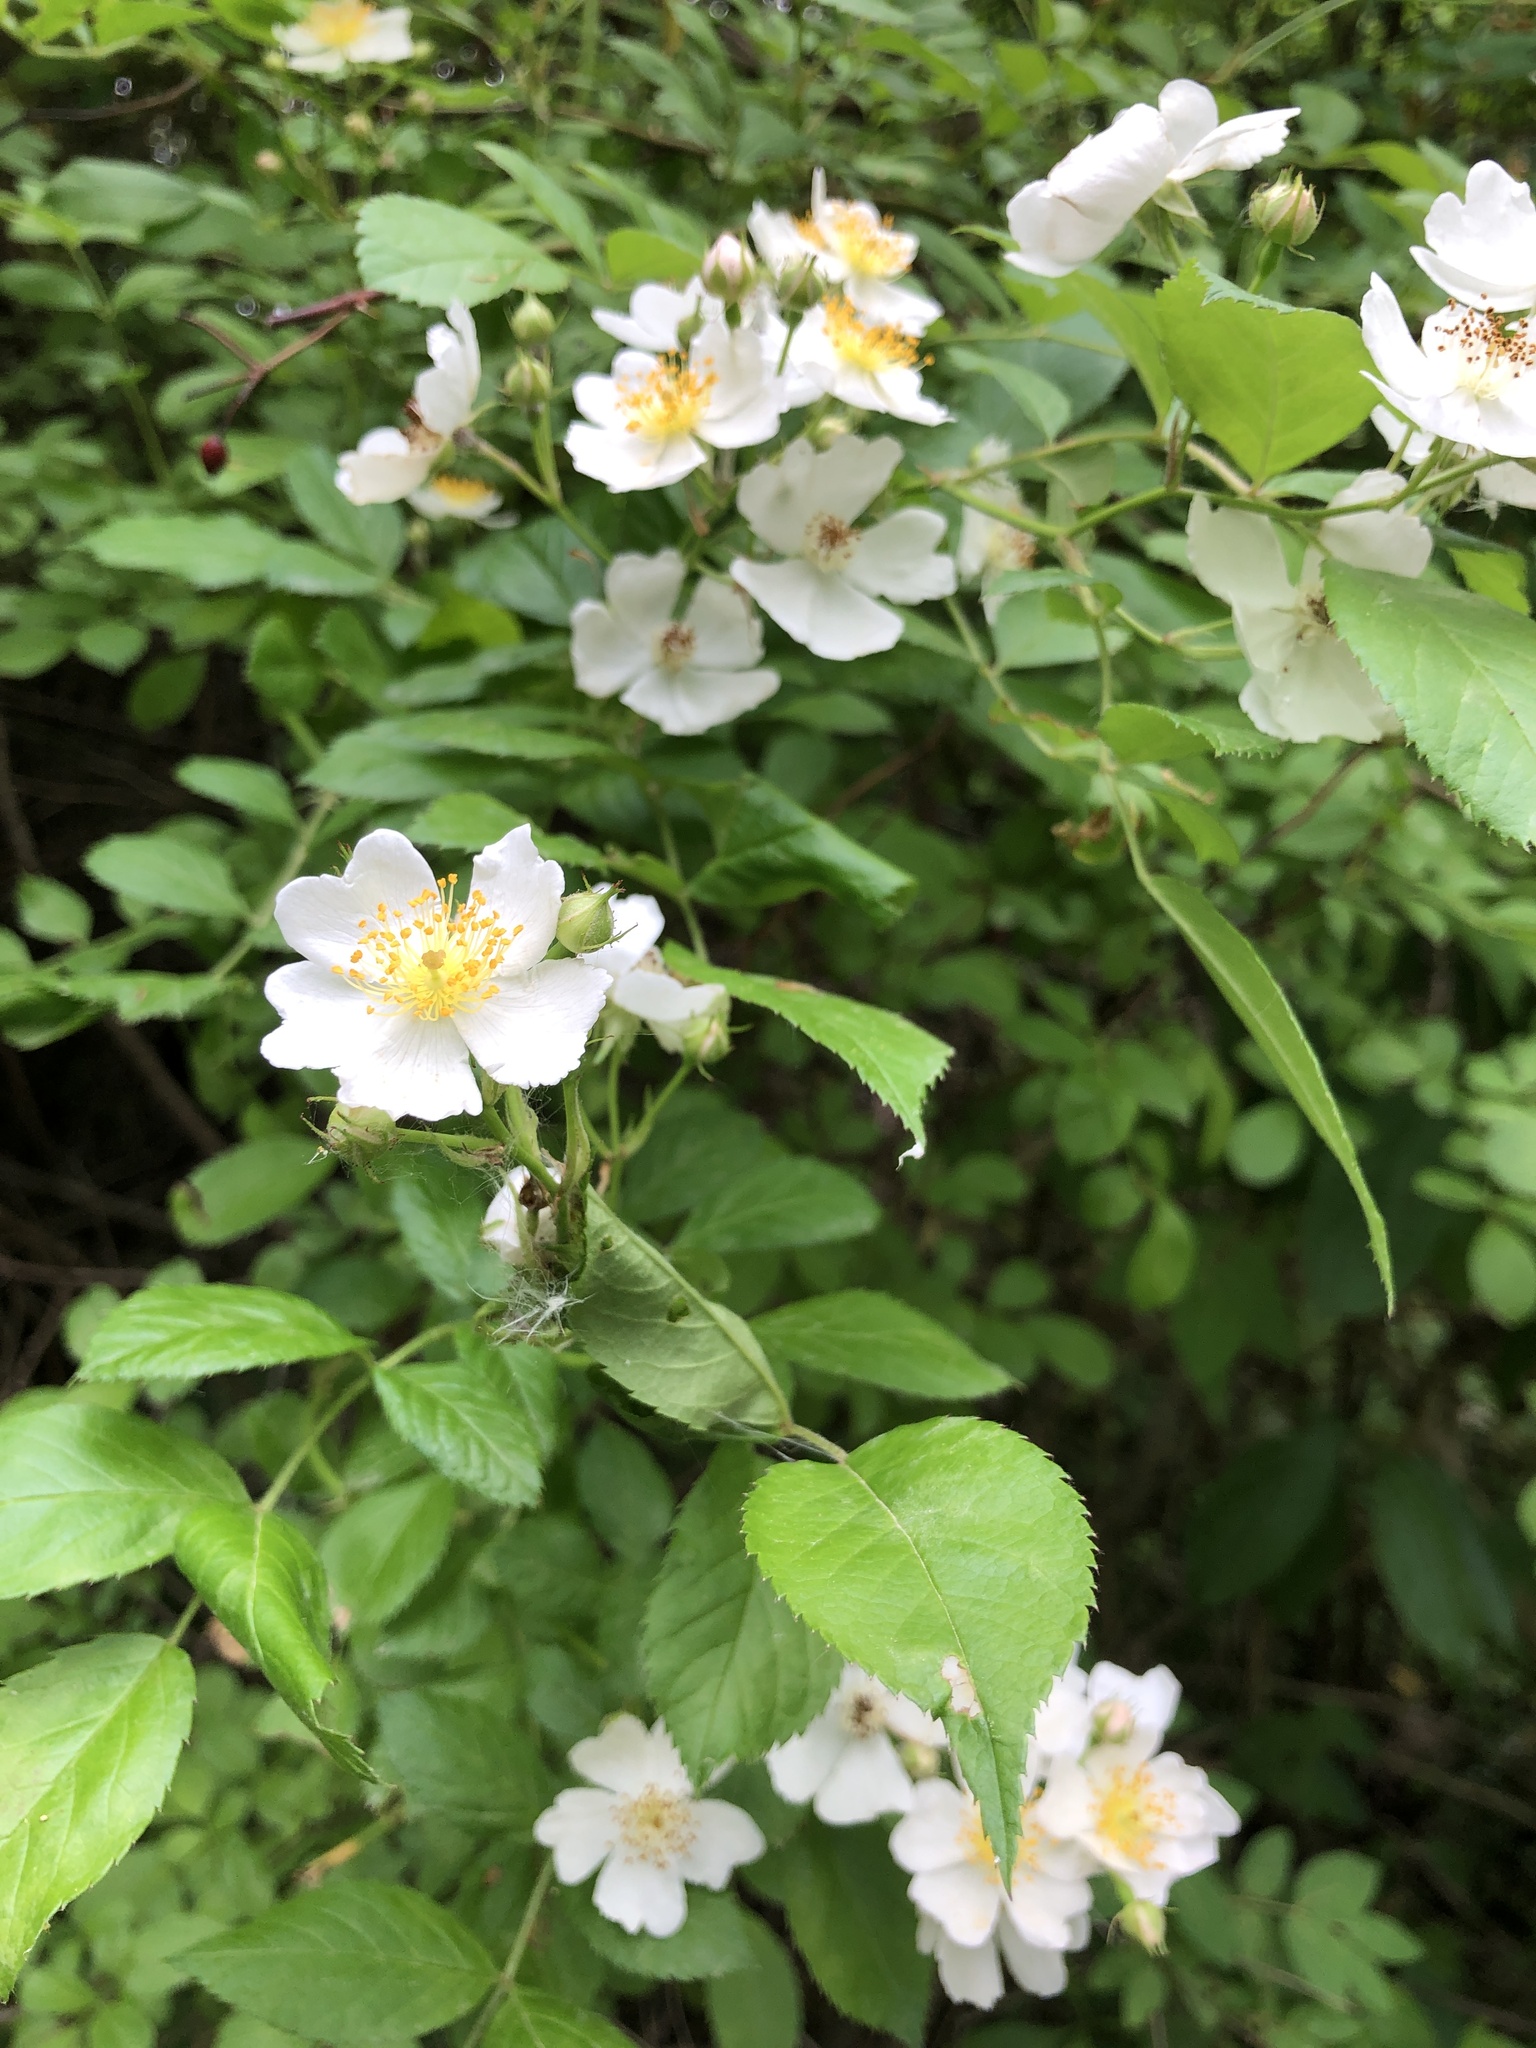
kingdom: Plantae
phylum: Tracheophyta
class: Magnoliopsida
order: Rosales
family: Rosaceae
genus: Rosa
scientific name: Rosa multiflora
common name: Multiflora rose
